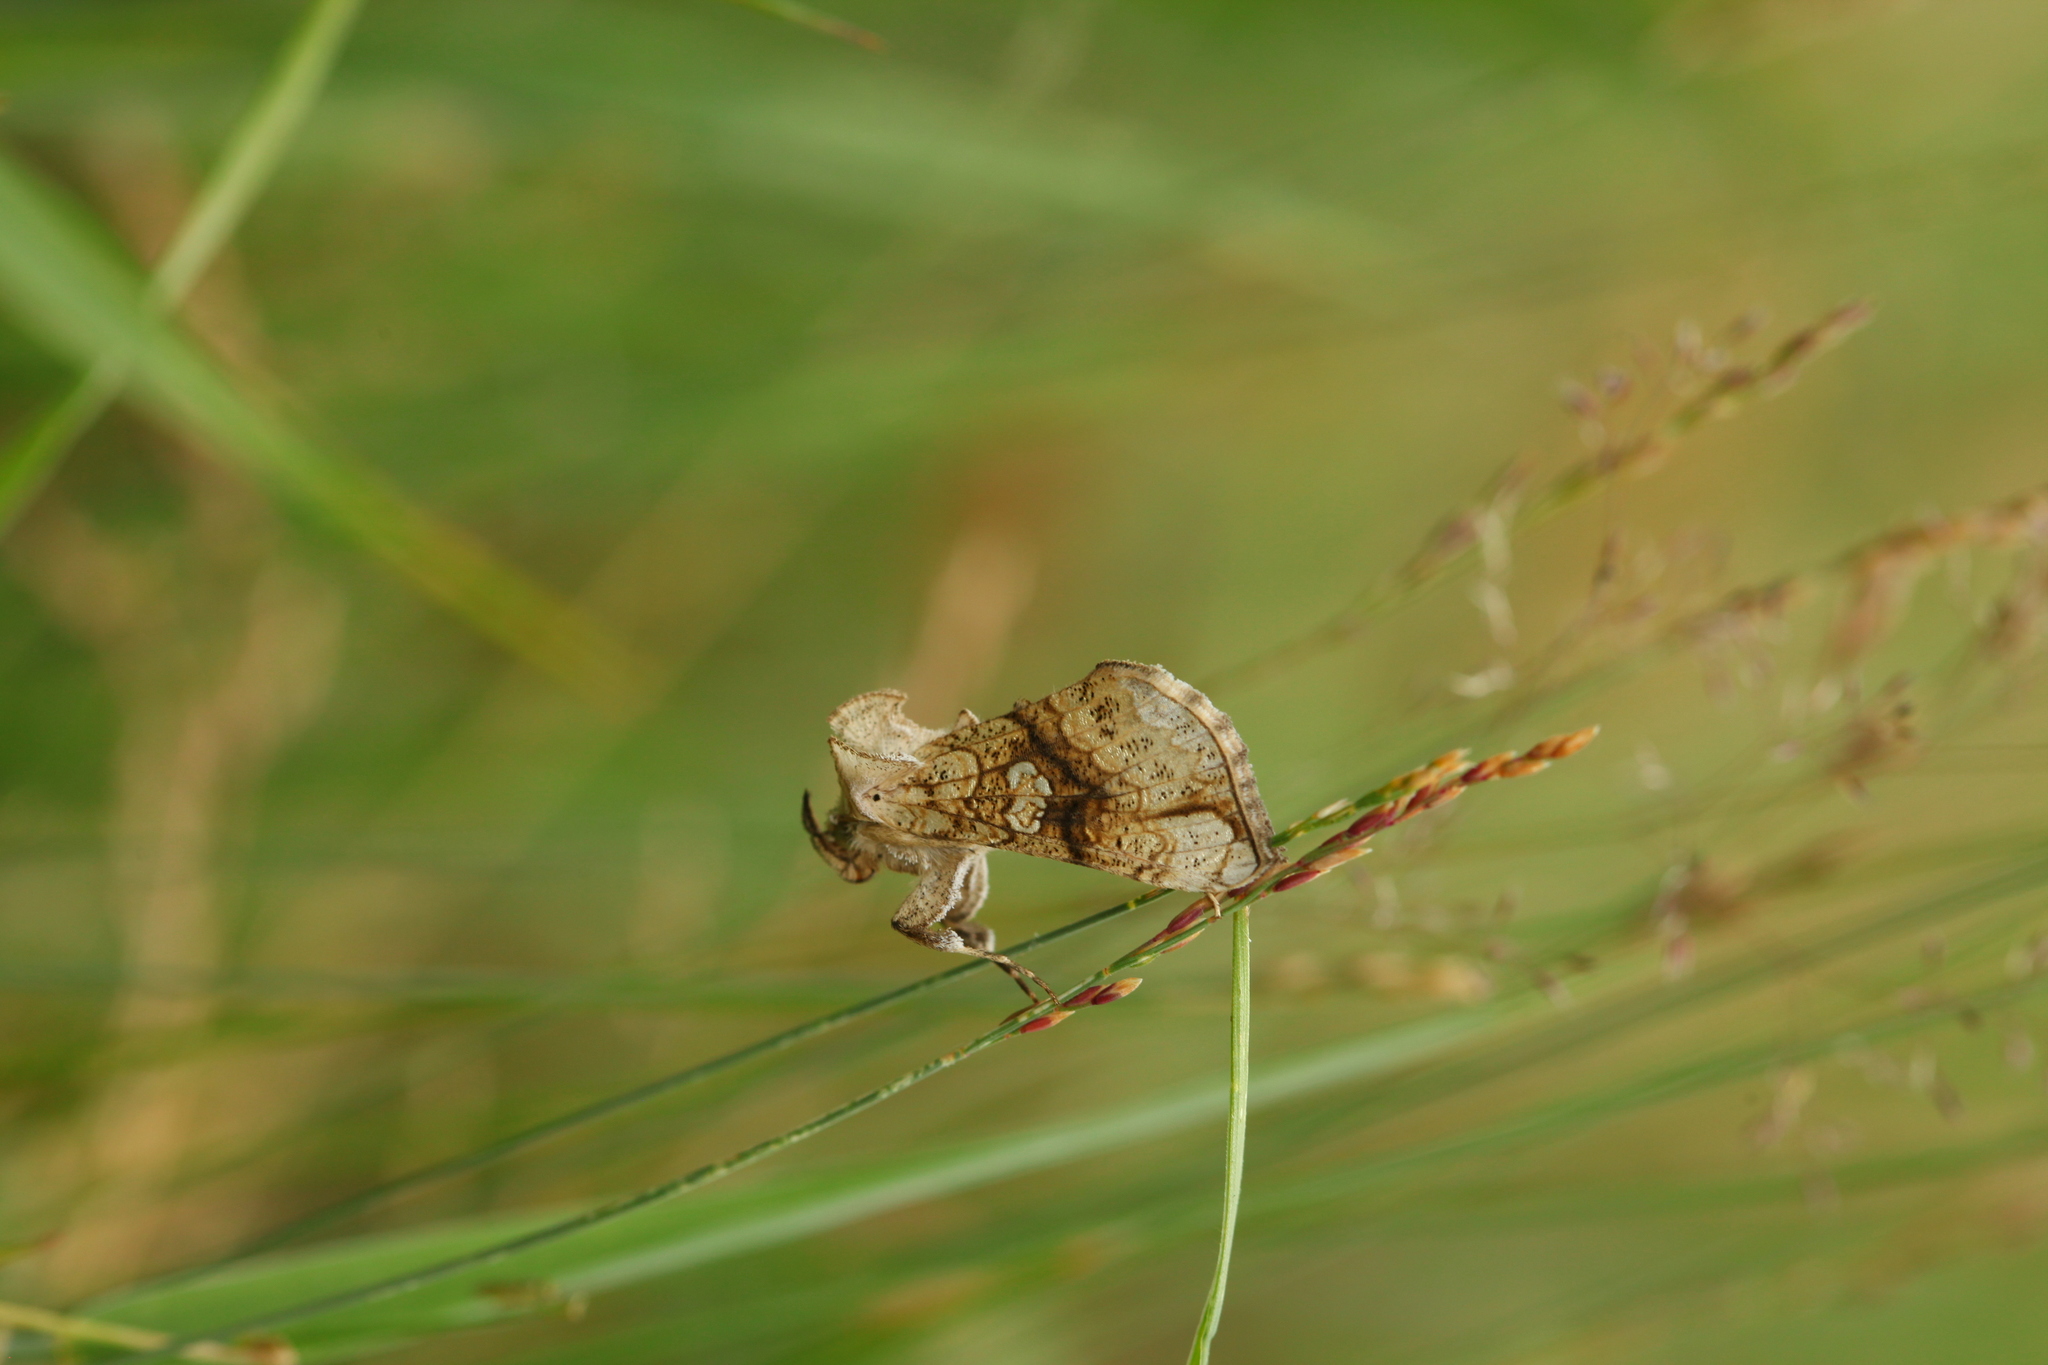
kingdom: Animalia
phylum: Arthropoda
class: Insecta
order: Lepidoptera
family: Noctuidae
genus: Polychrysia
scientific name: Polychrysia esmeralda
